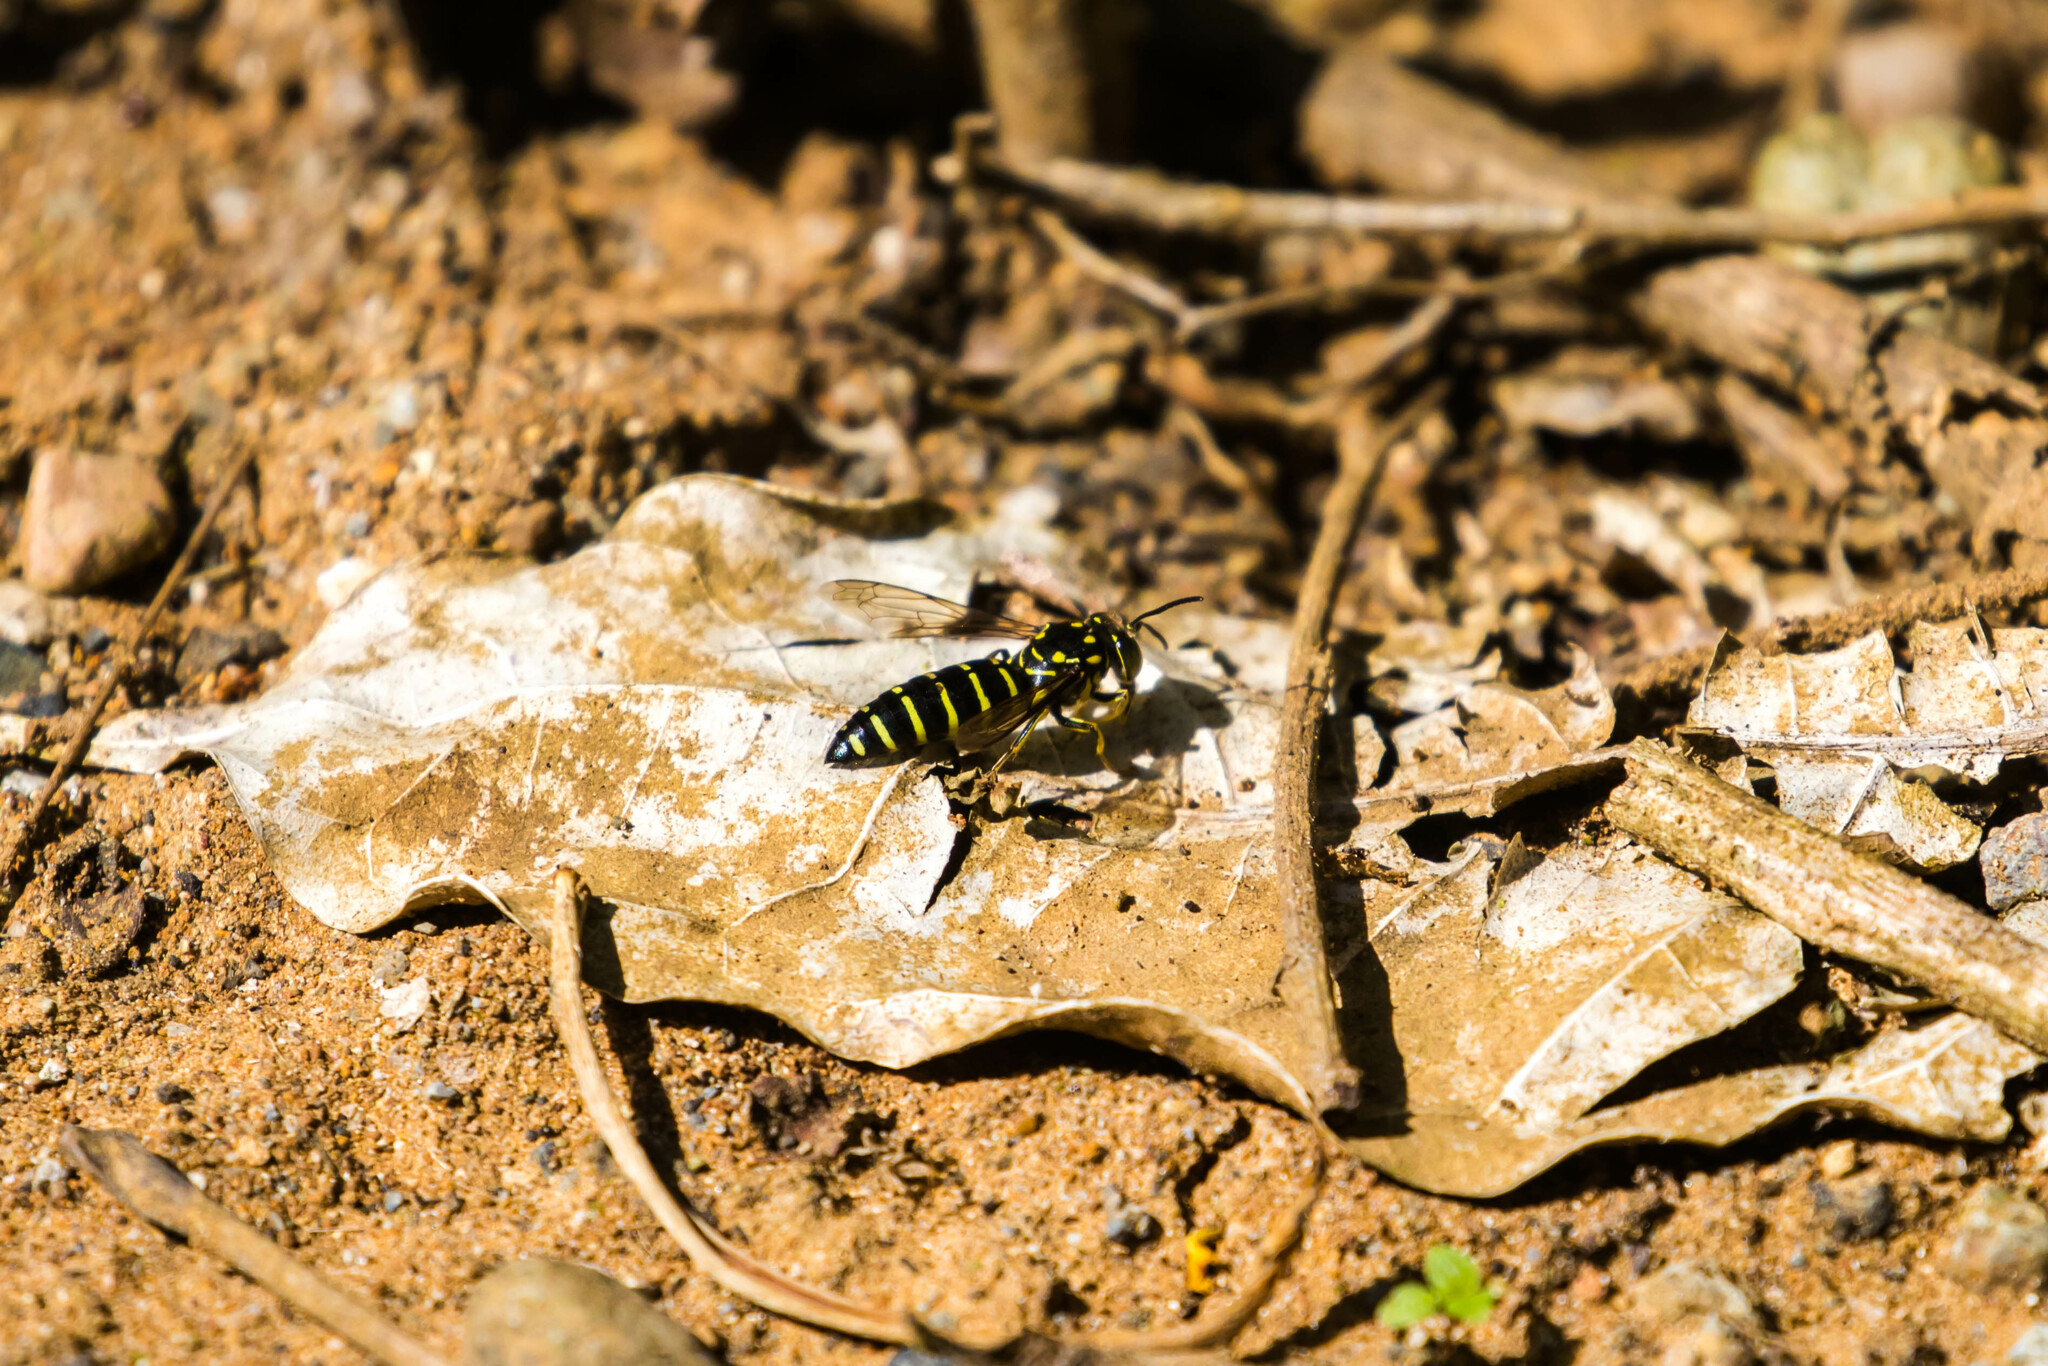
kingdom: Animalia
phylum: Arthropoda
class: Insecta
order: Hymenoptera
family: Crabronidae
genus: Bicyrtes
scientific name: Bicyrtes discisus
